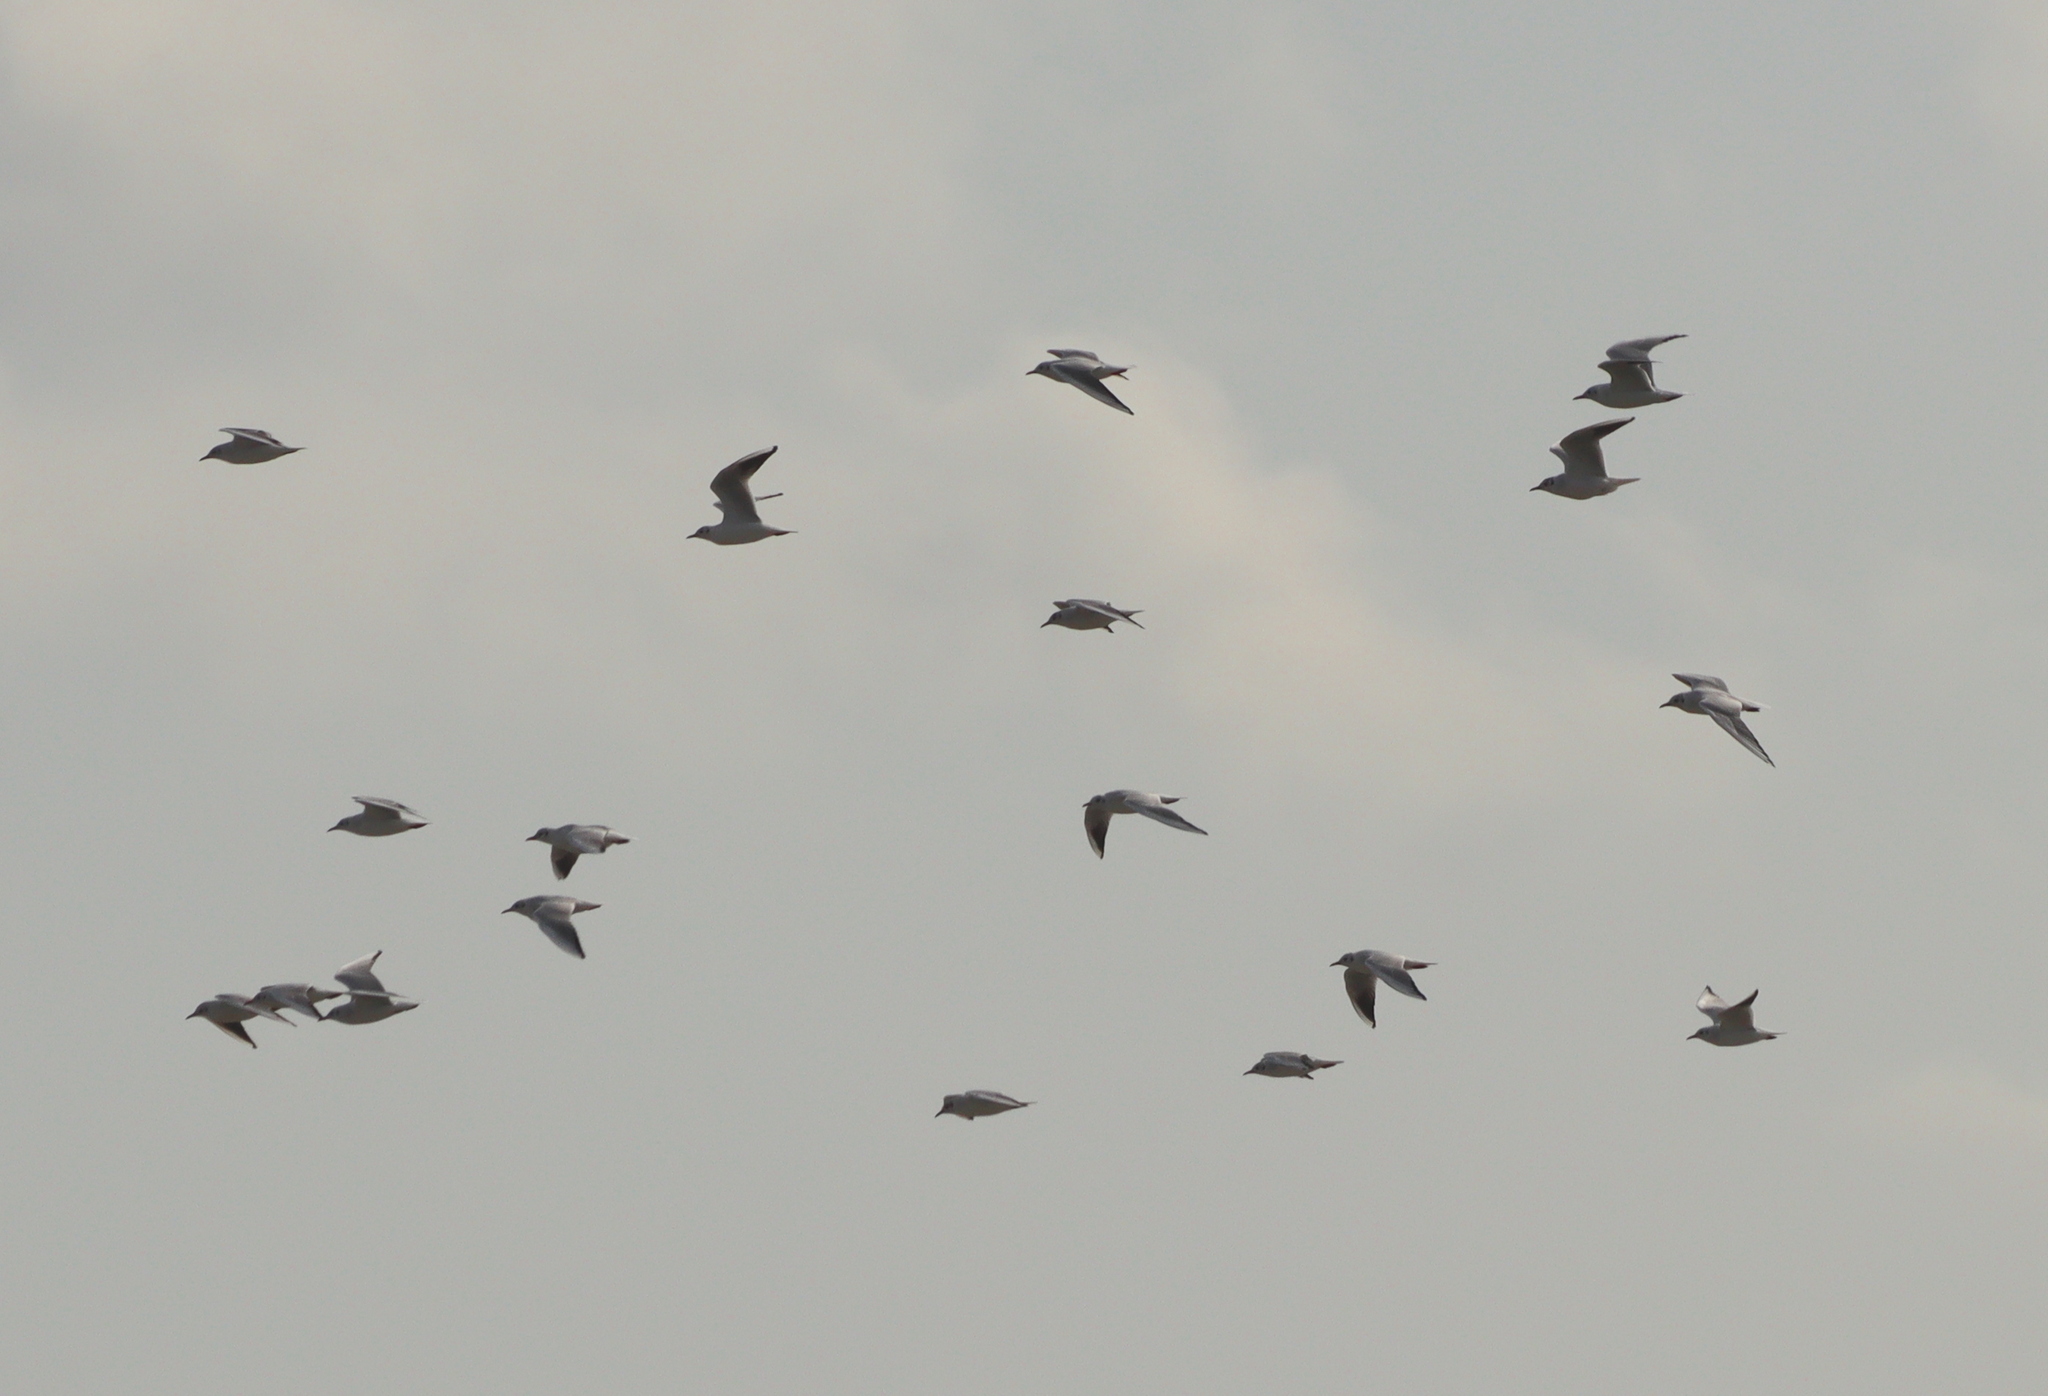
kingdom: Animalia
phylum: Chordata
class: Aves
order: Charadriiformes
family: Laridae
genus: Chroicocephalus
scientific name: Chroicocephalus ridibundus
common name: Black-headed gull
